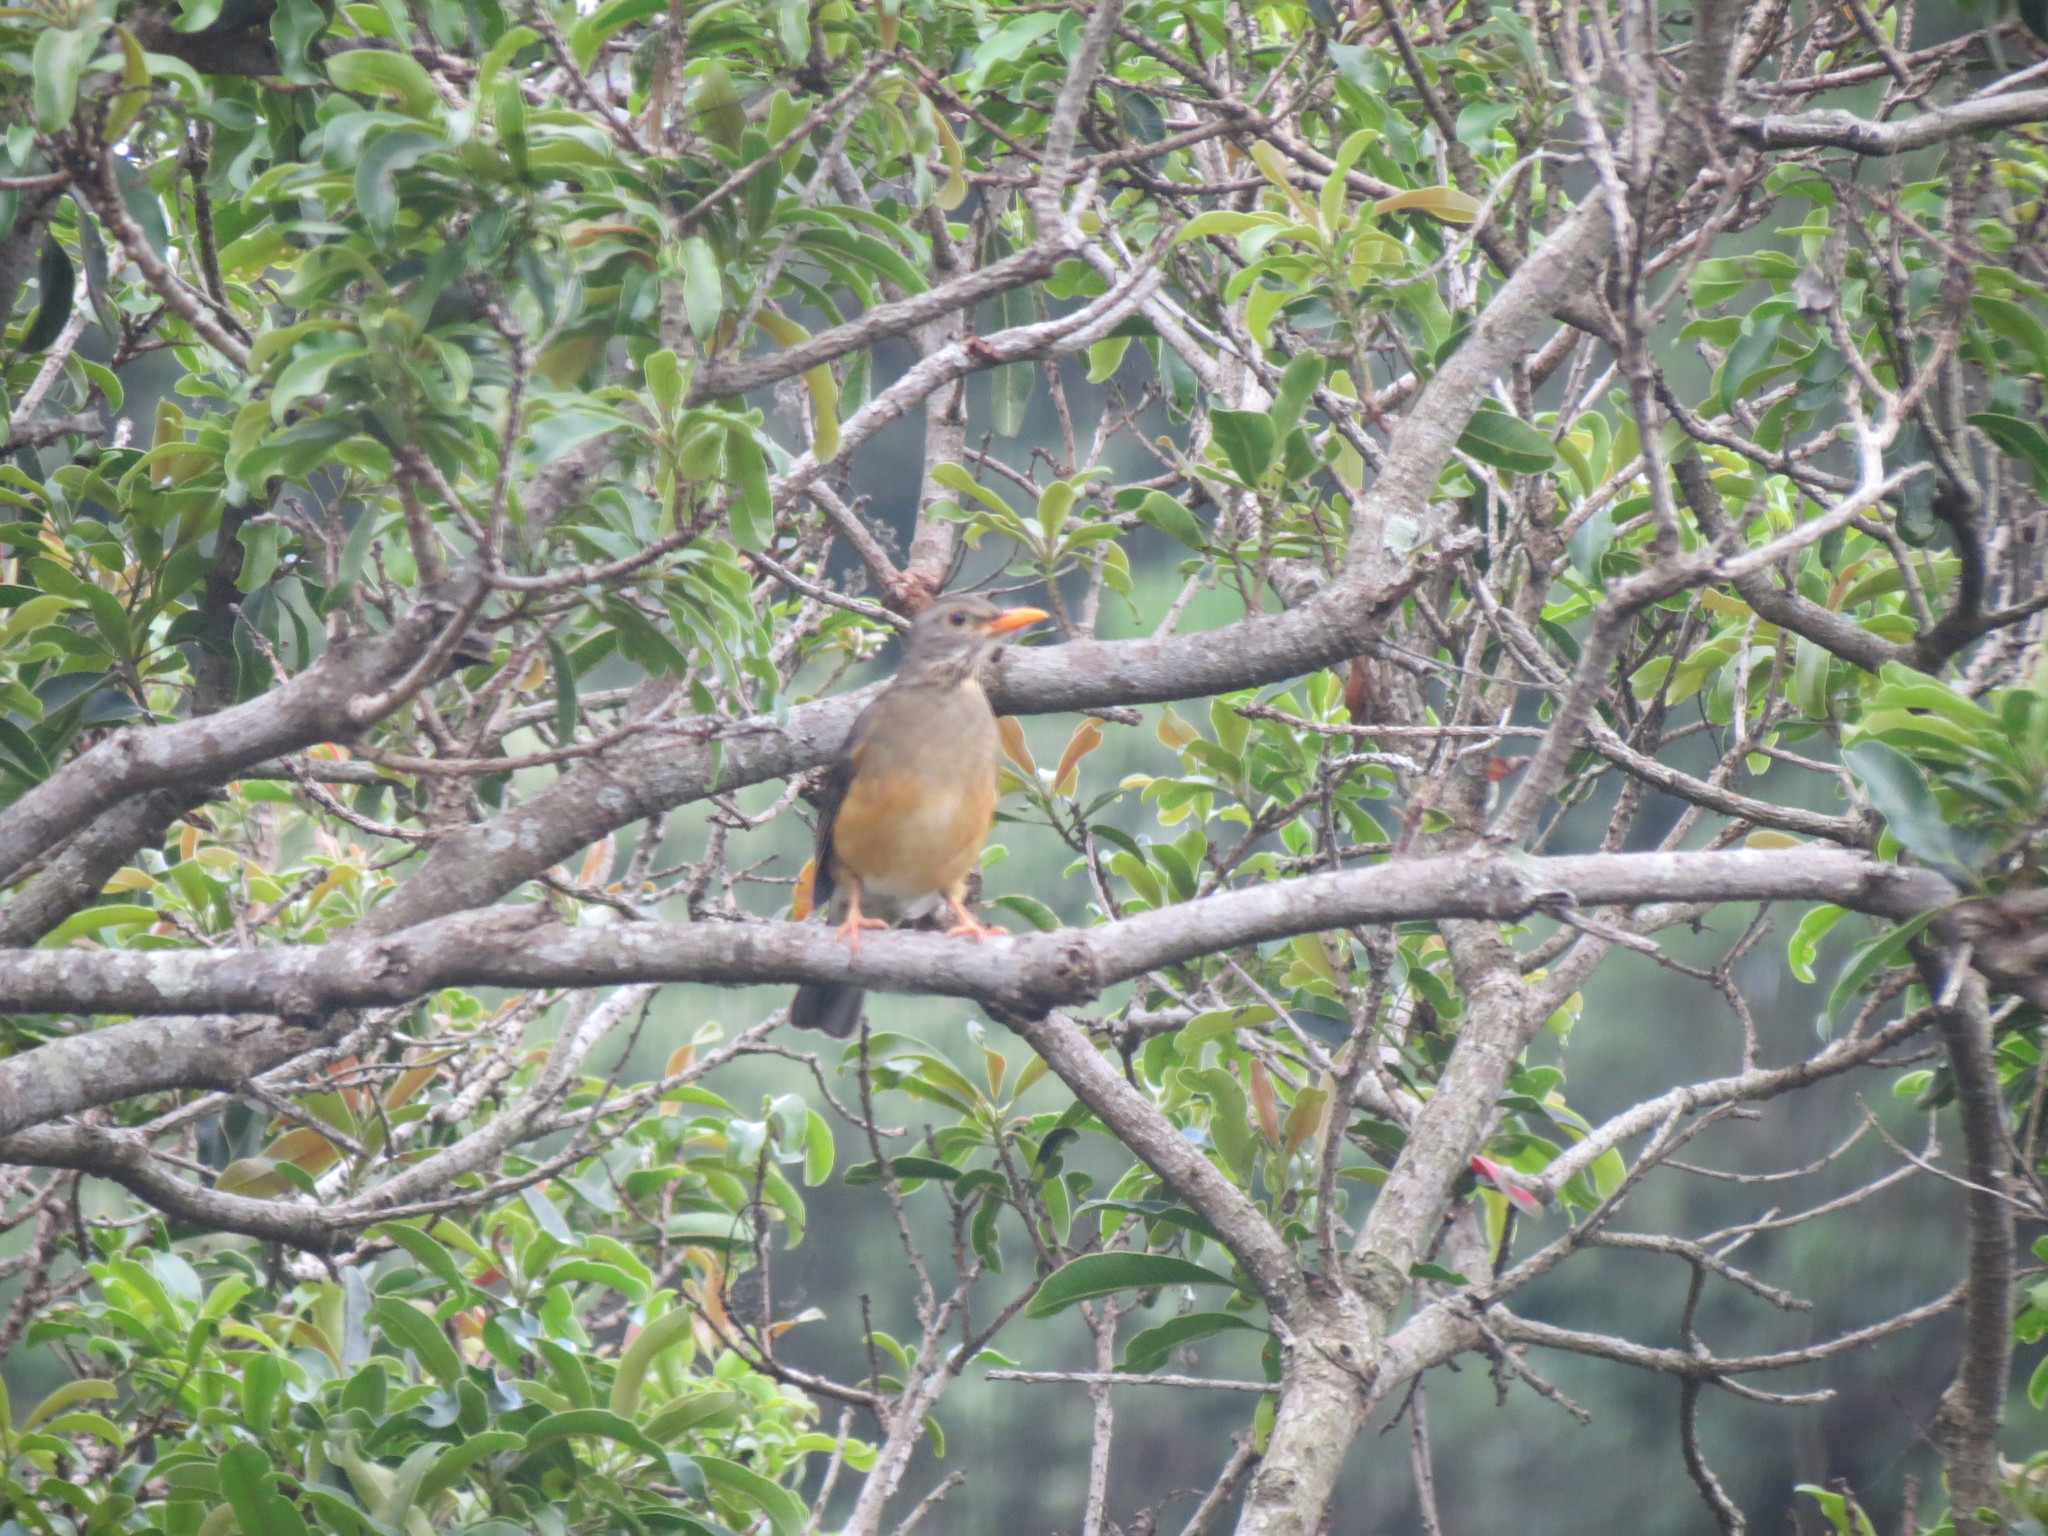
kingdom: Animalia
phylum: Chordata
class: Aves
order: Passeriformes
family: Turdidae
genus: Turdus
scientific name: Turdus libonyana
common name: Kurrichane thrush
